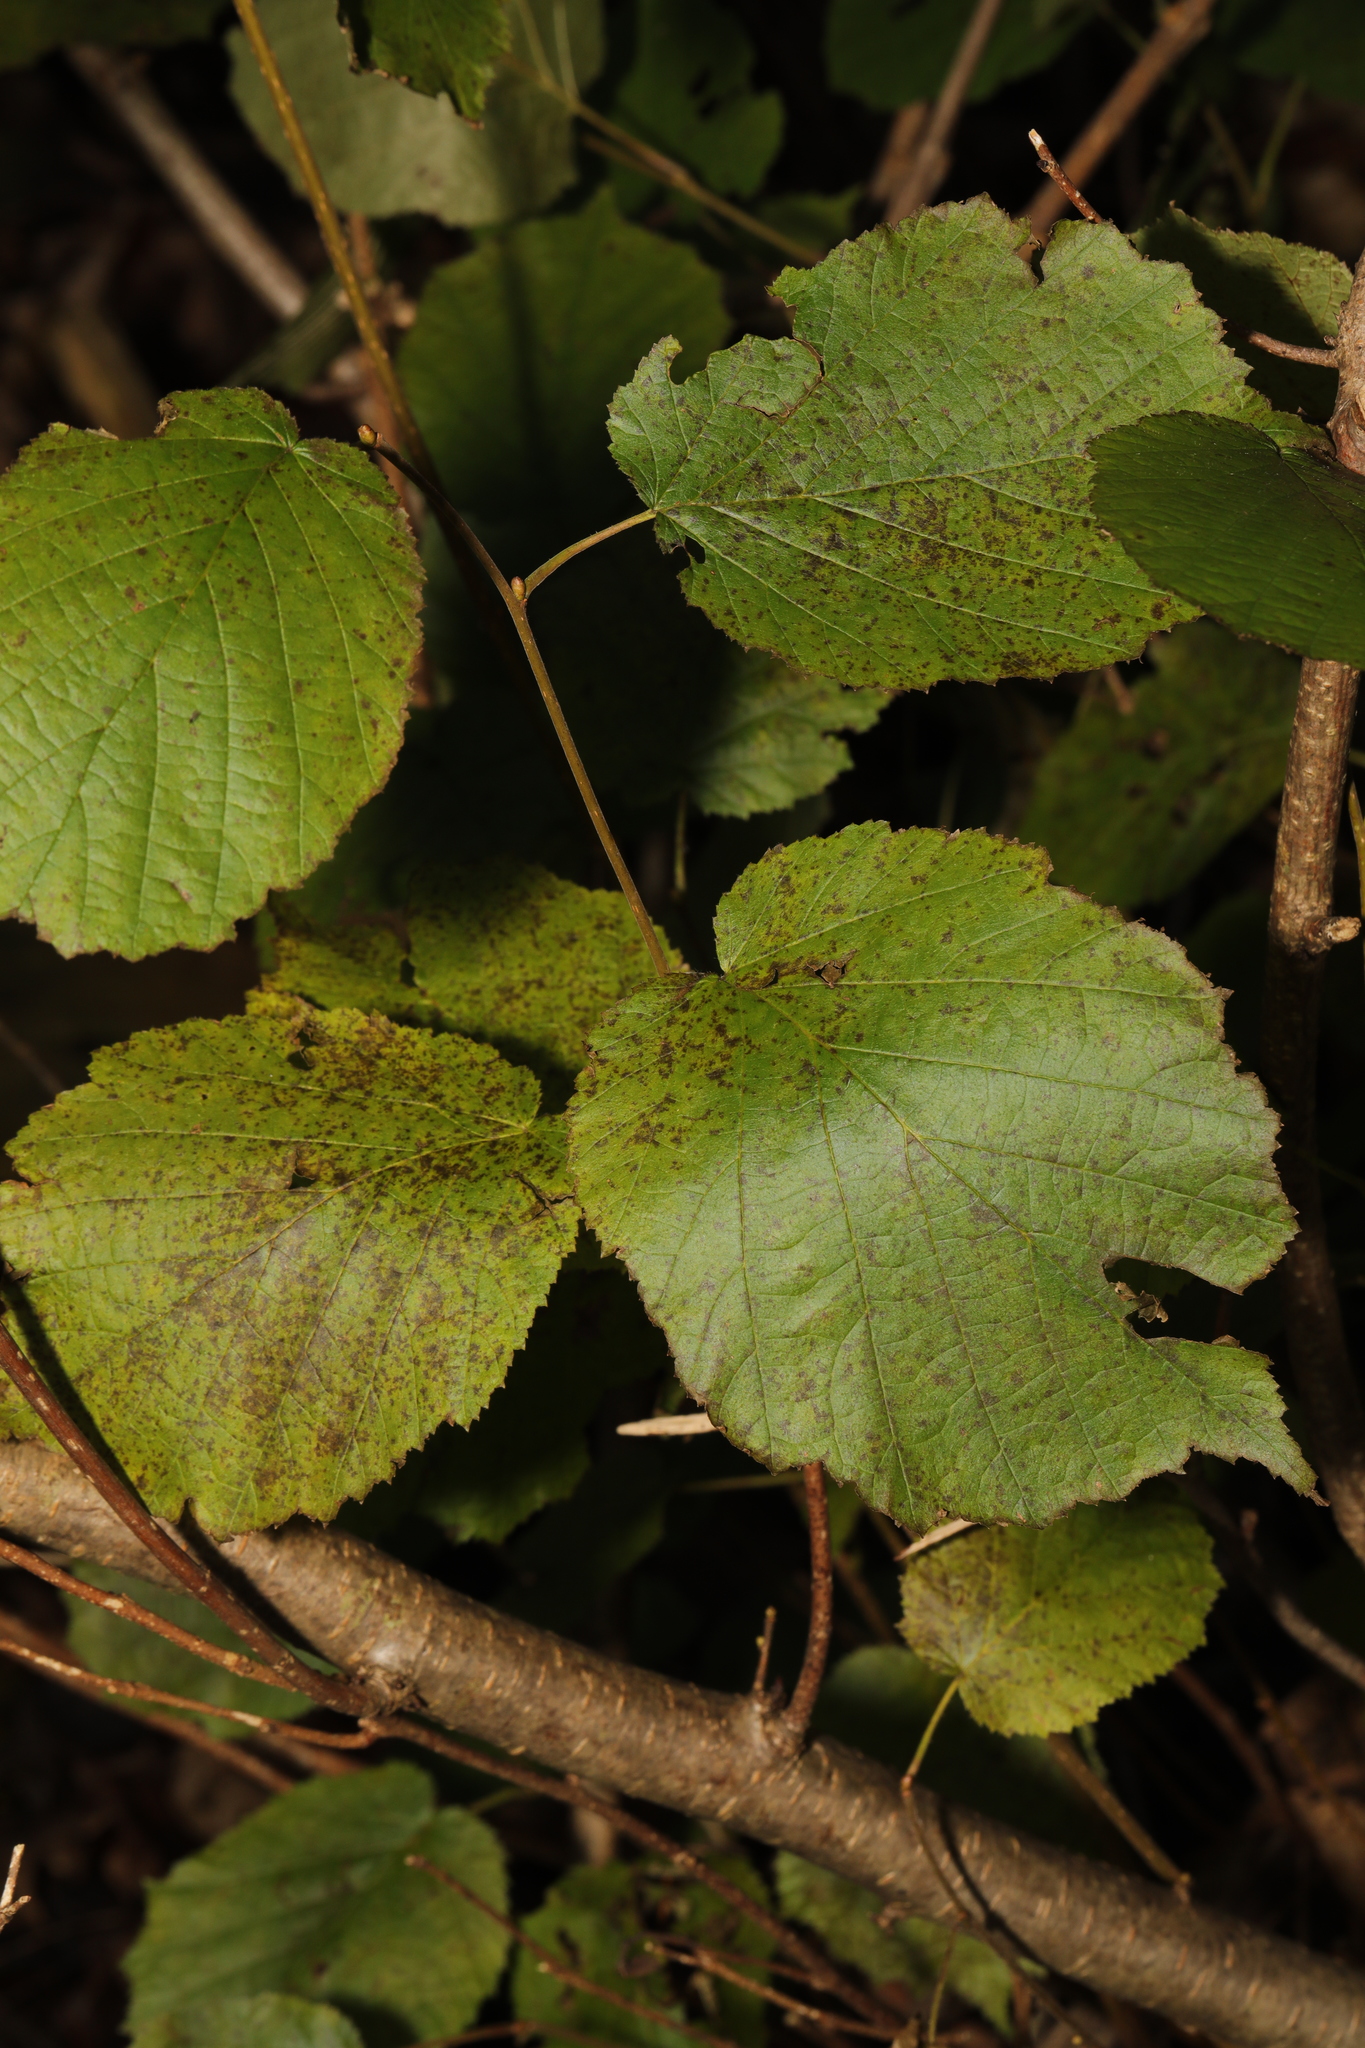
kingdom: Plantae
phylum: Tracheophyta
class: Magnoliopsida
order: Fagales
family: Betulaceae
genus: Corylus
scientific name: Corylus avellana
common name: European hazel
